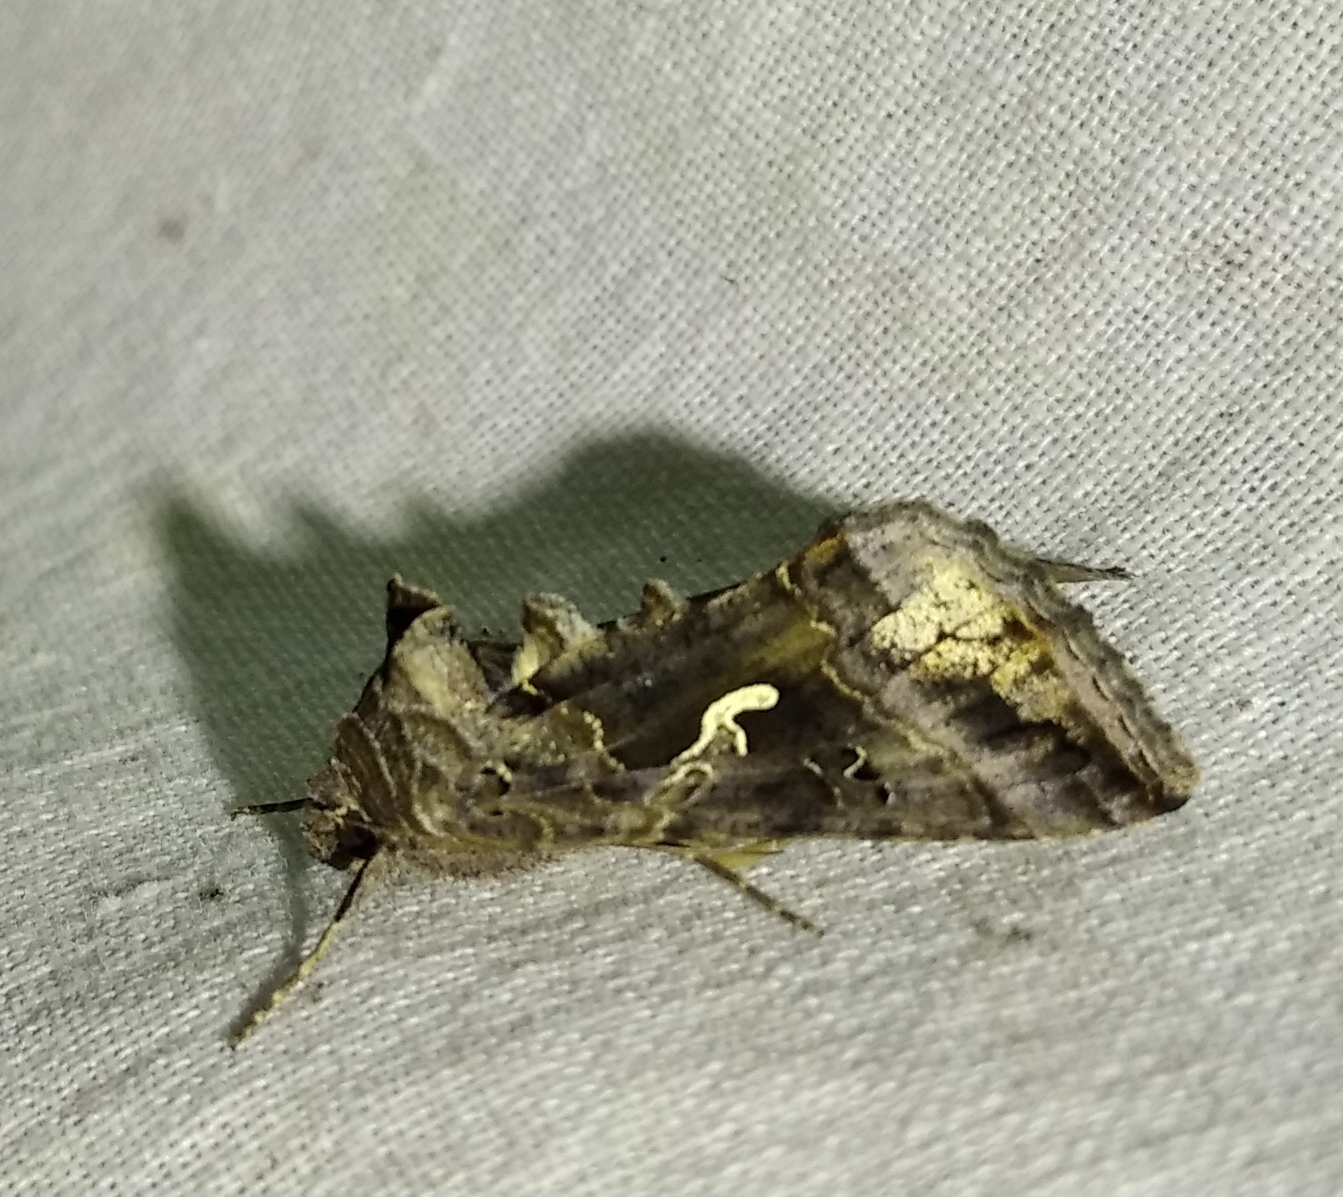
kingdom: Animalia
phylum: Arthropoda
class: Insecta
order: Lepidoptera
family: Noctuidae
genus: Autographa
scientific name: Autographa gamma
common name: Silver y
